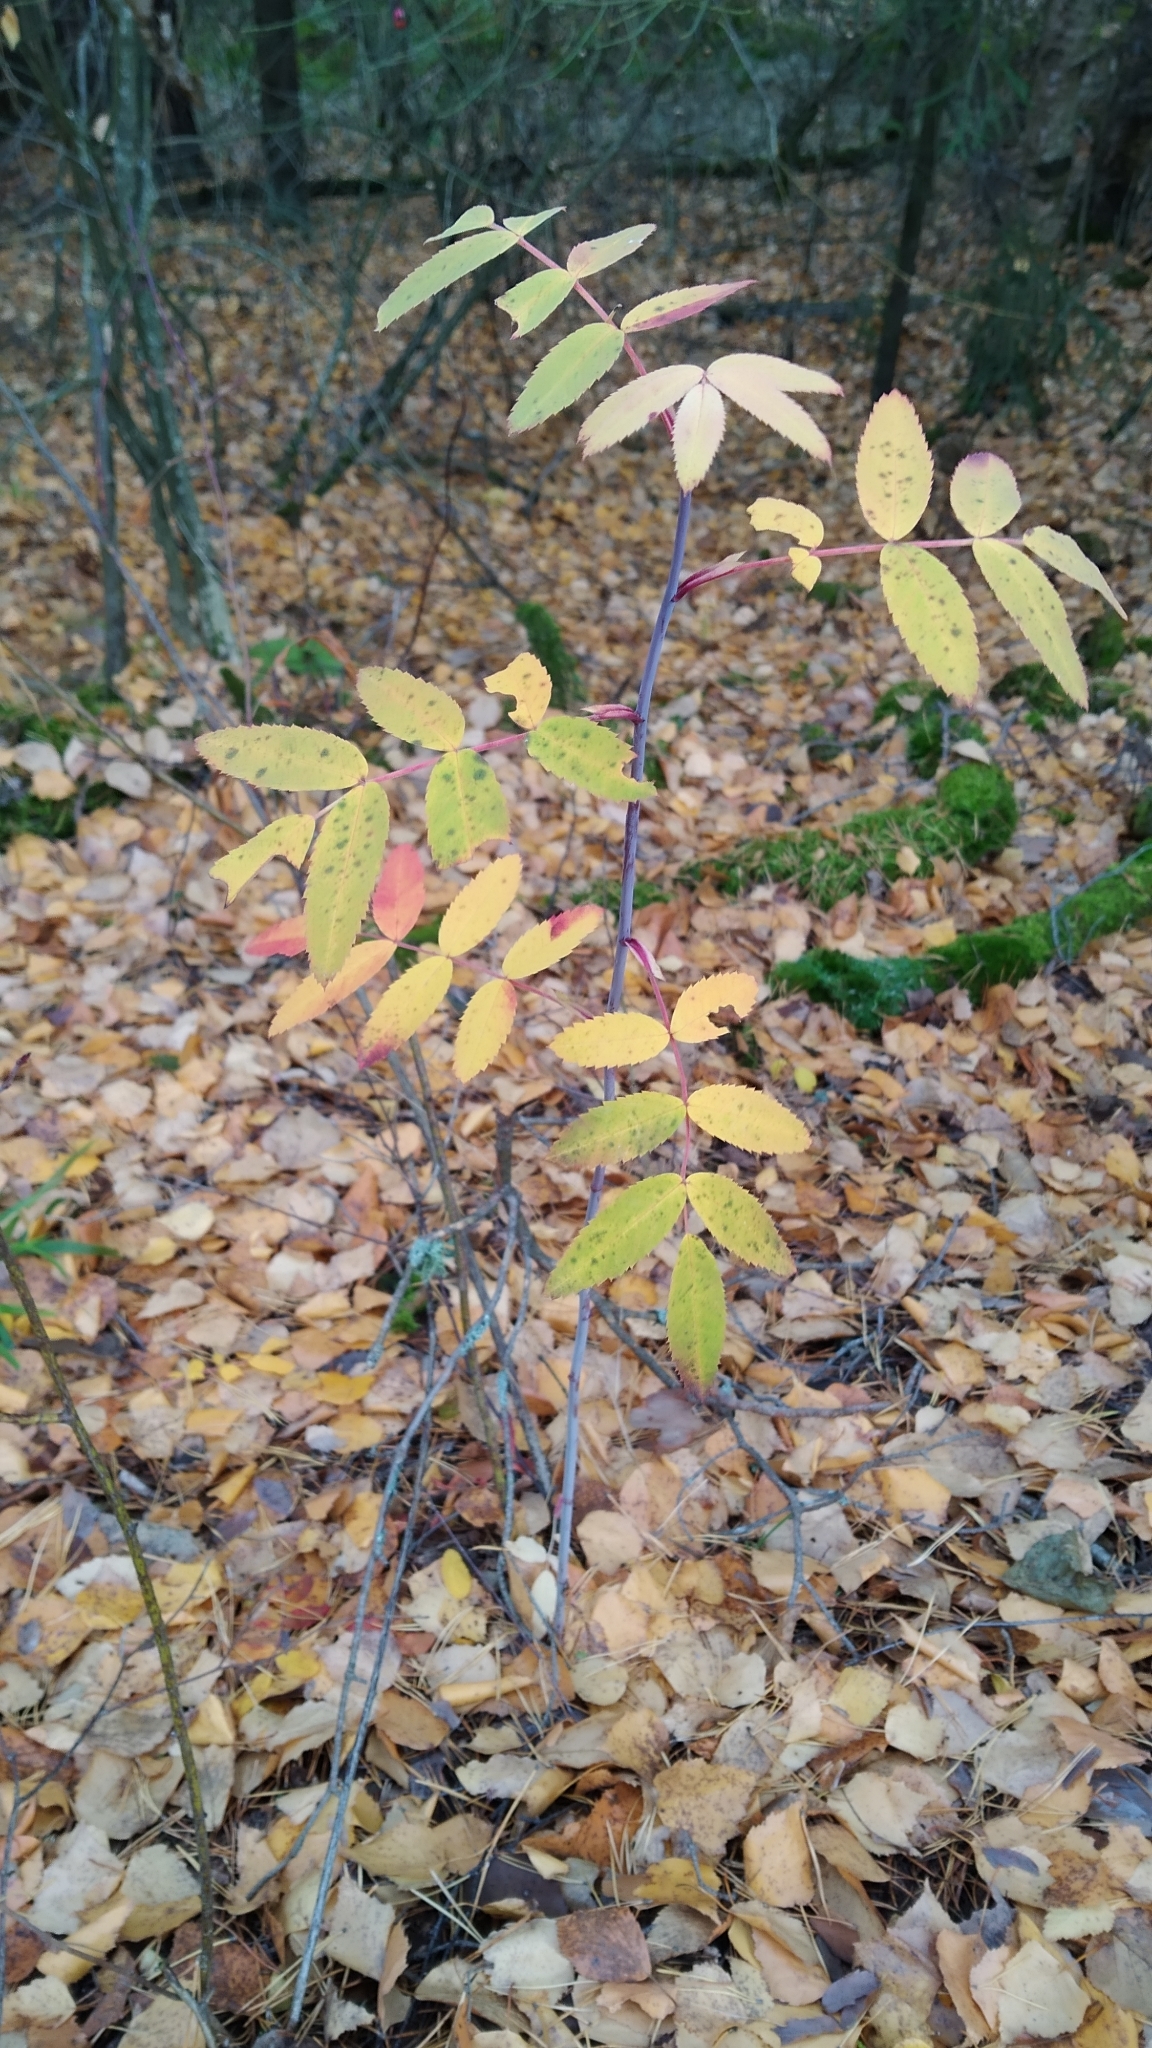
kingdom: Plantae
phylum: Tracheophyta
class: Magnoliopsida
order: Rosales
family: Rosaceae
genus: Sorbus
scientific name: Sorbus aucuparia
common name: Rowan
